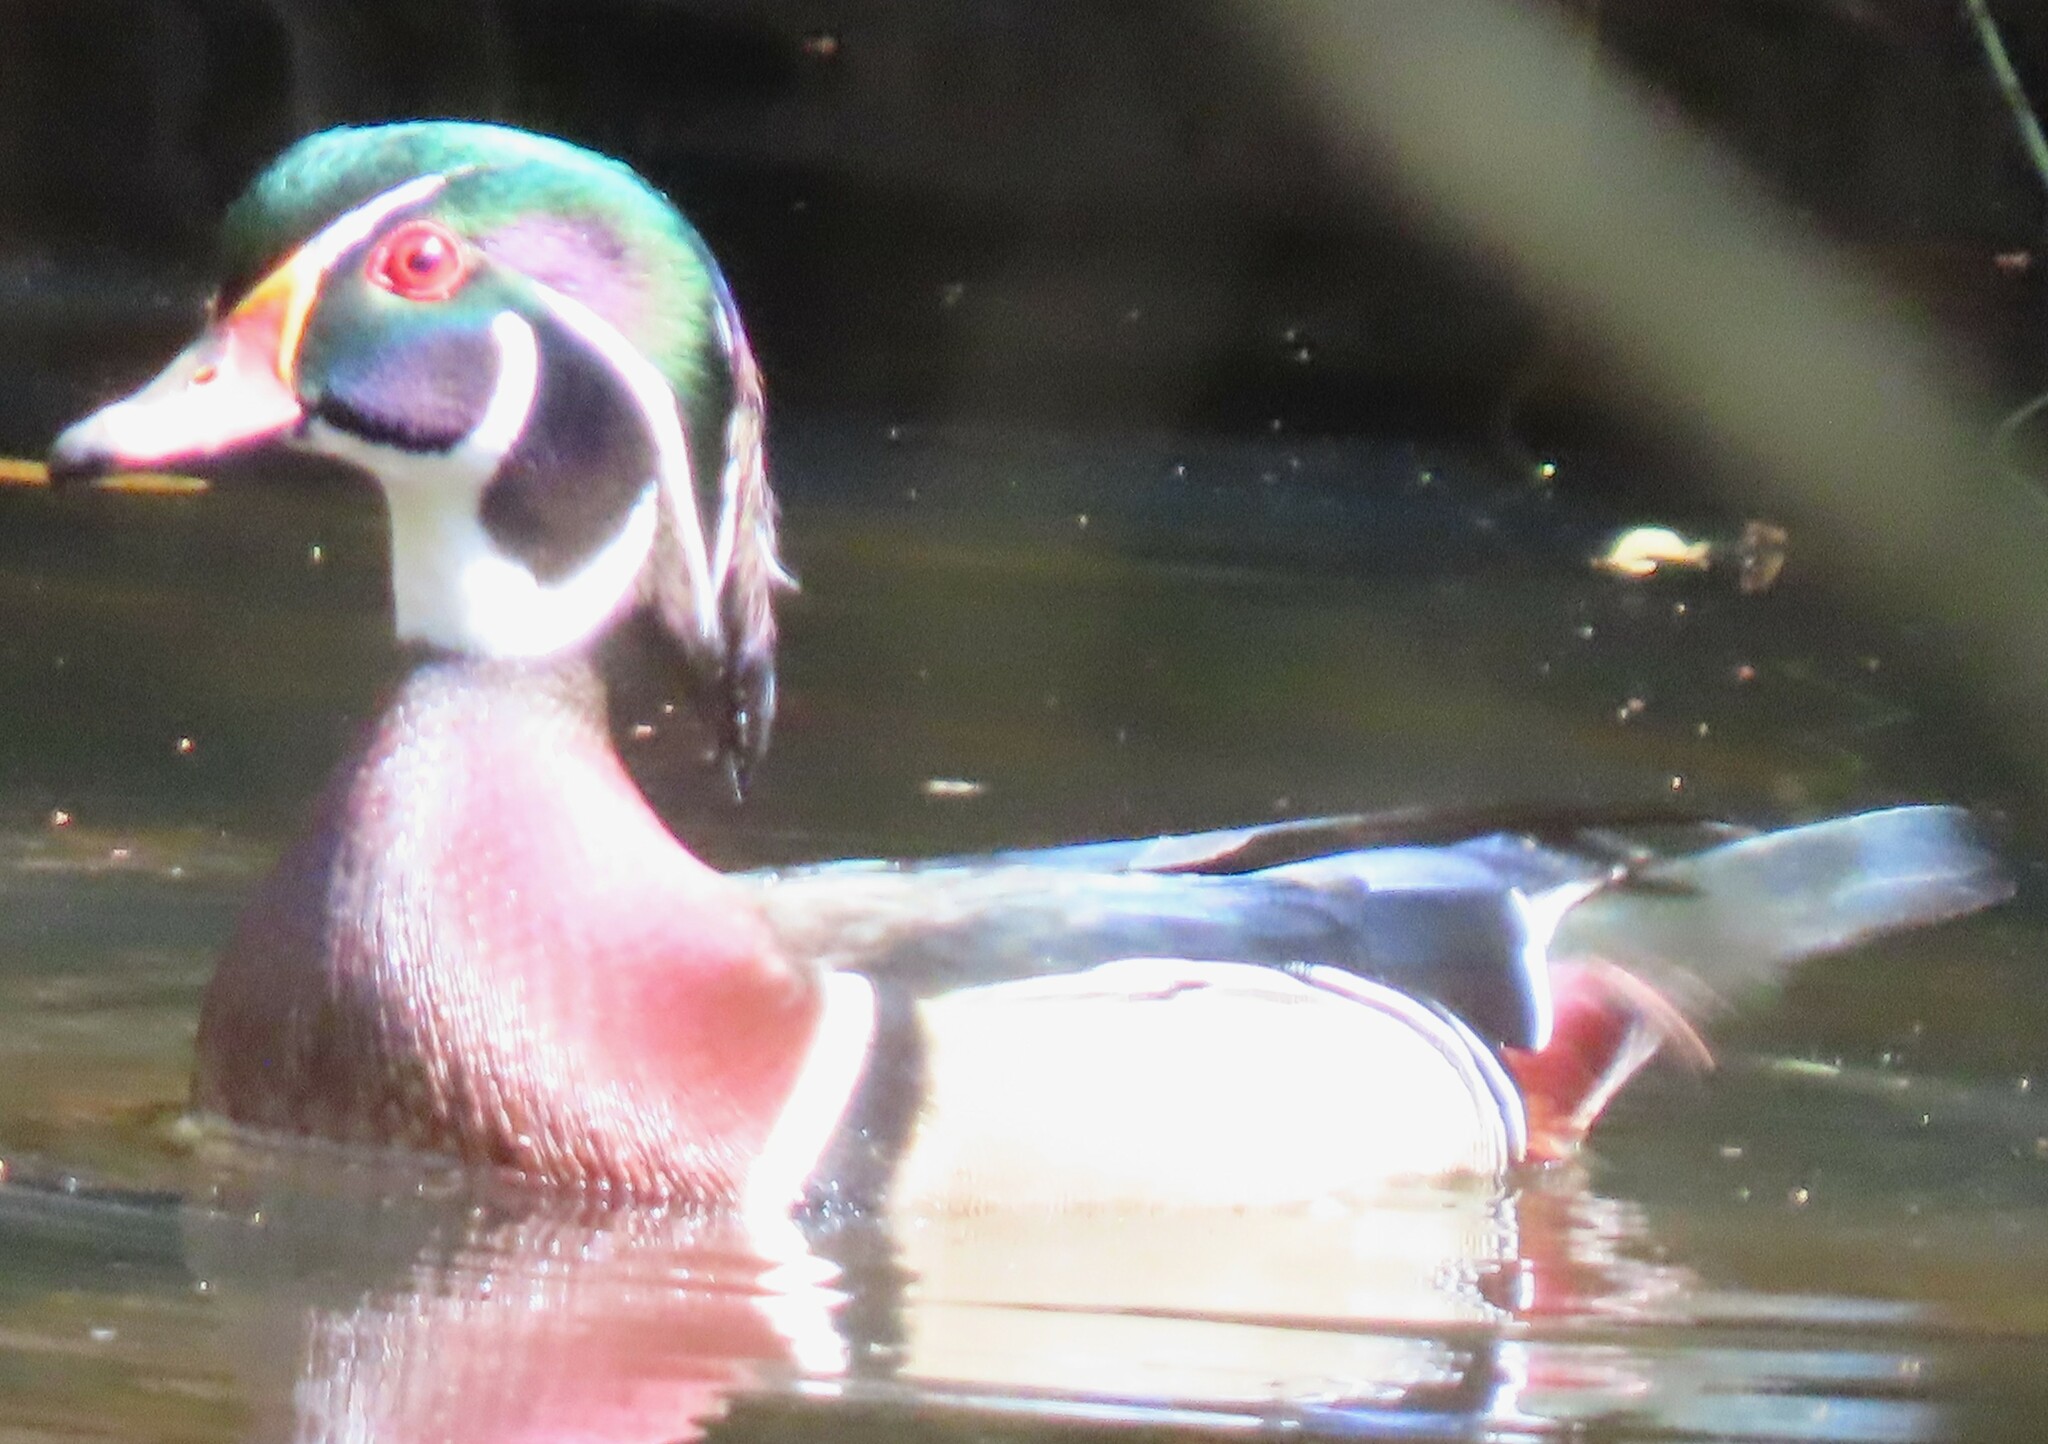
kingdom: Animalia
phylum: Chordata
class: Aves
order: Anseriformes
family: Anatidae
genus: Aix
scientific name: Aix sponsa
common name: Wood duck
